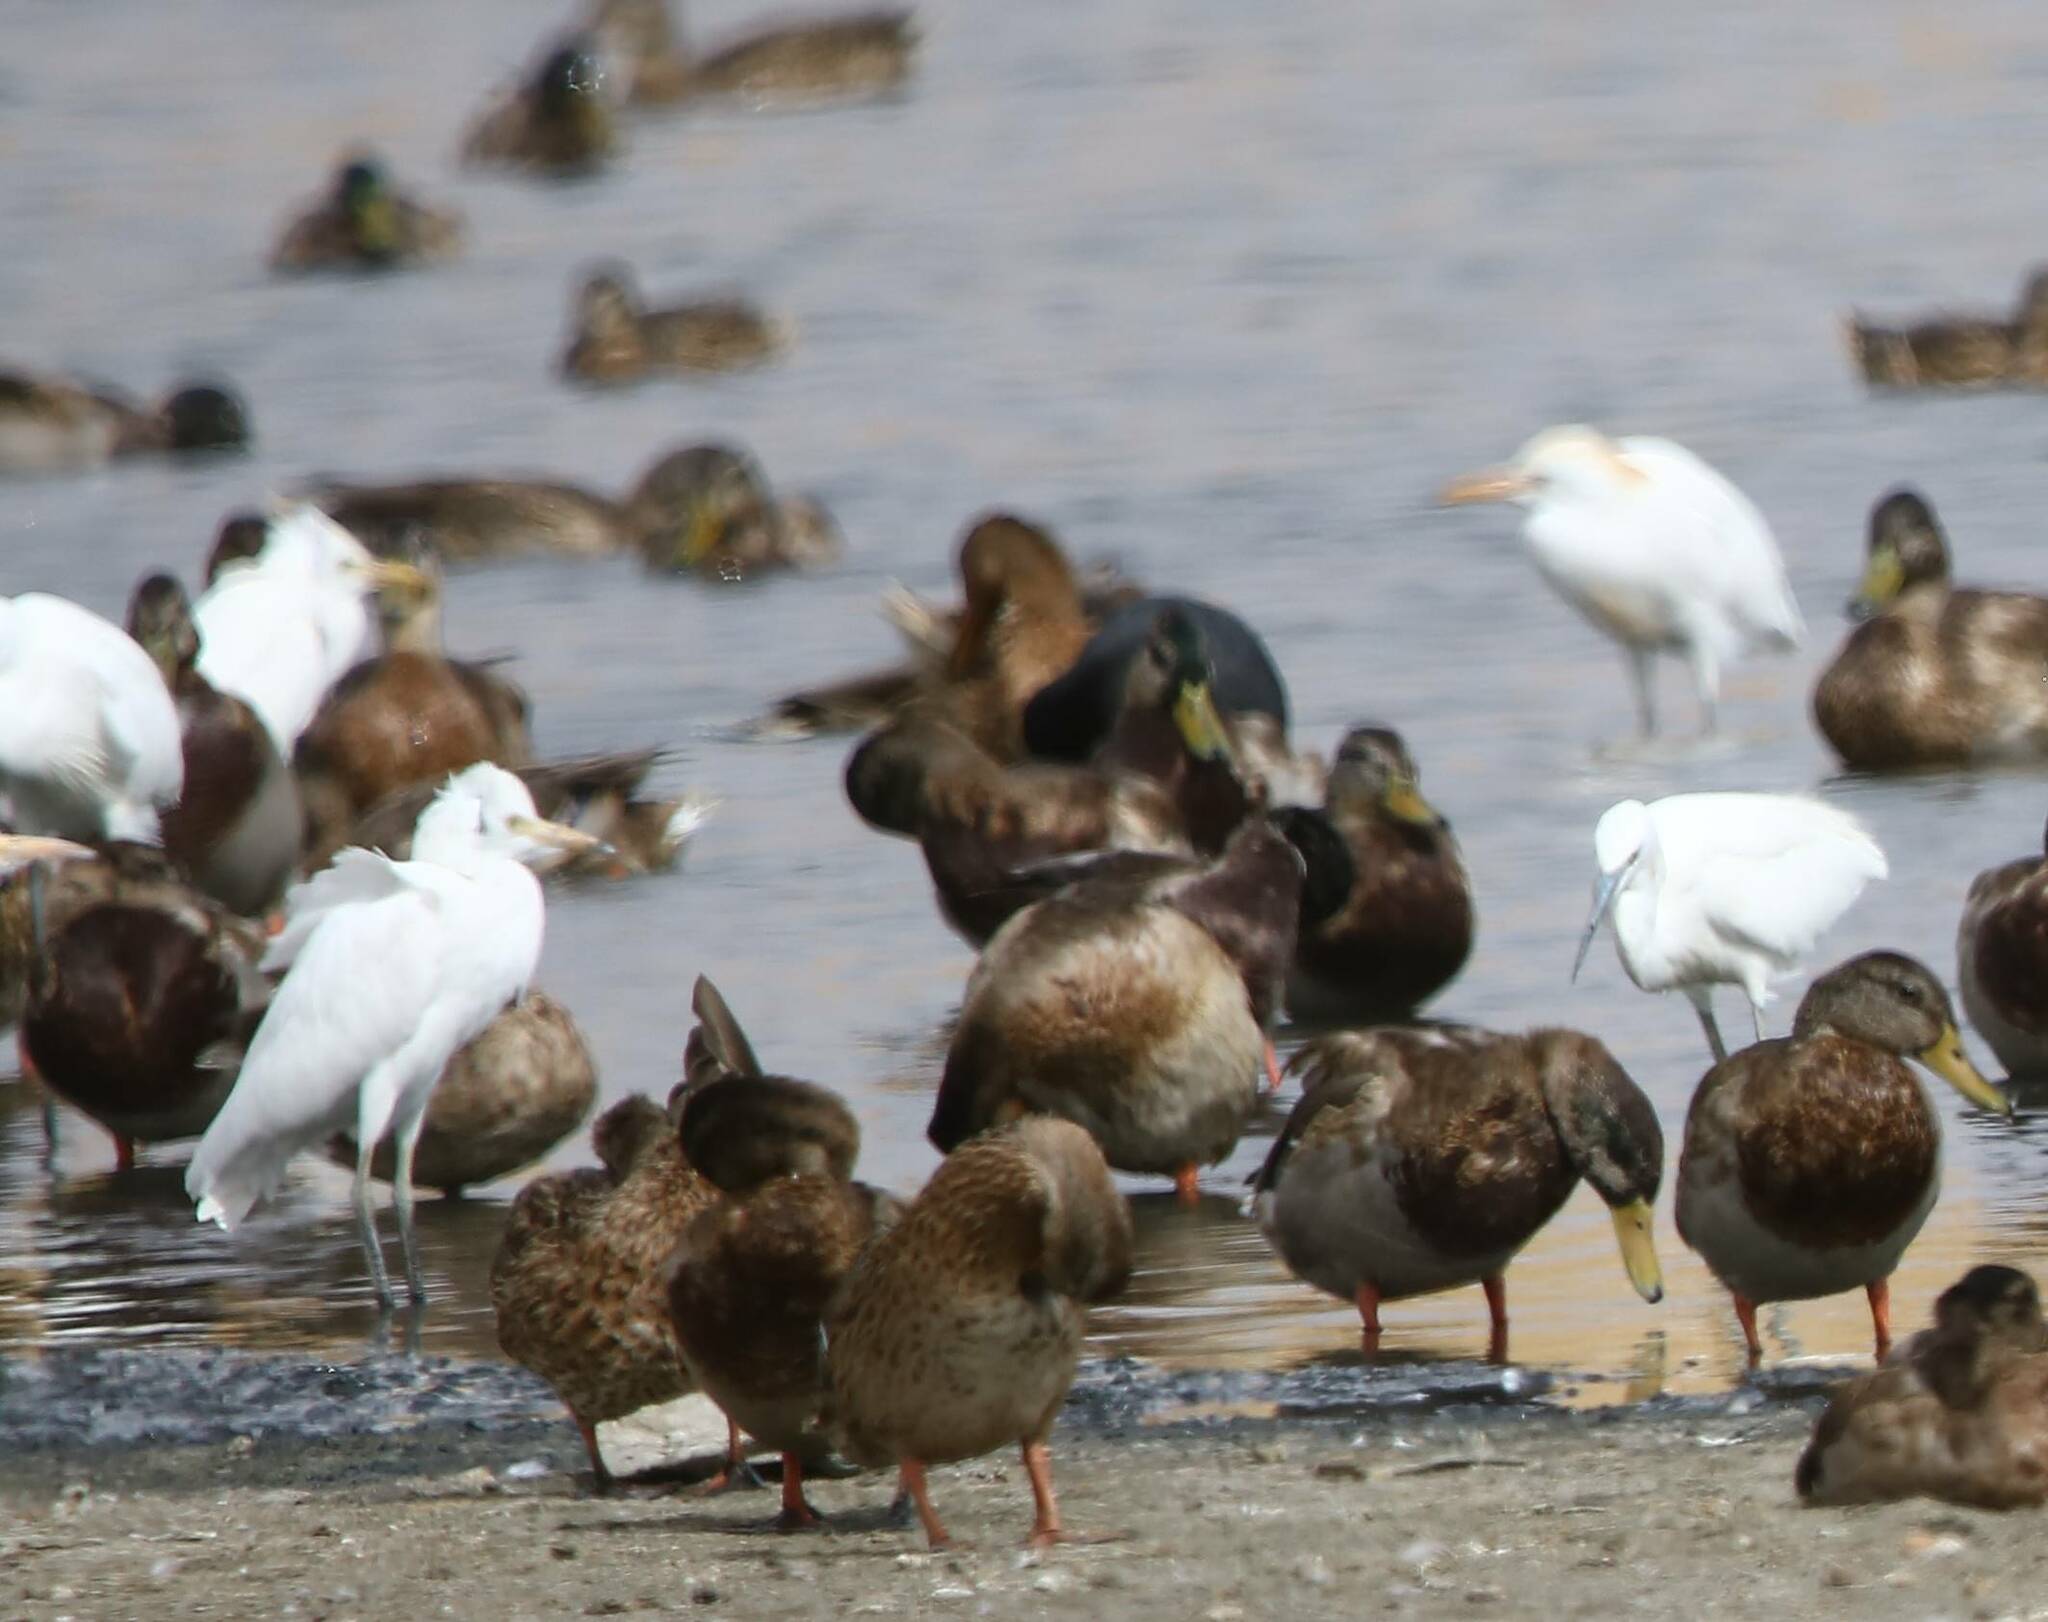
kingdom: Animalia
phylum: Chordata
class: Aves
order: Pelecaniformes
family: Ardeidae
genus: Bubulcus
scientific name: Bubulcus ibis
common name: Cattle egret
